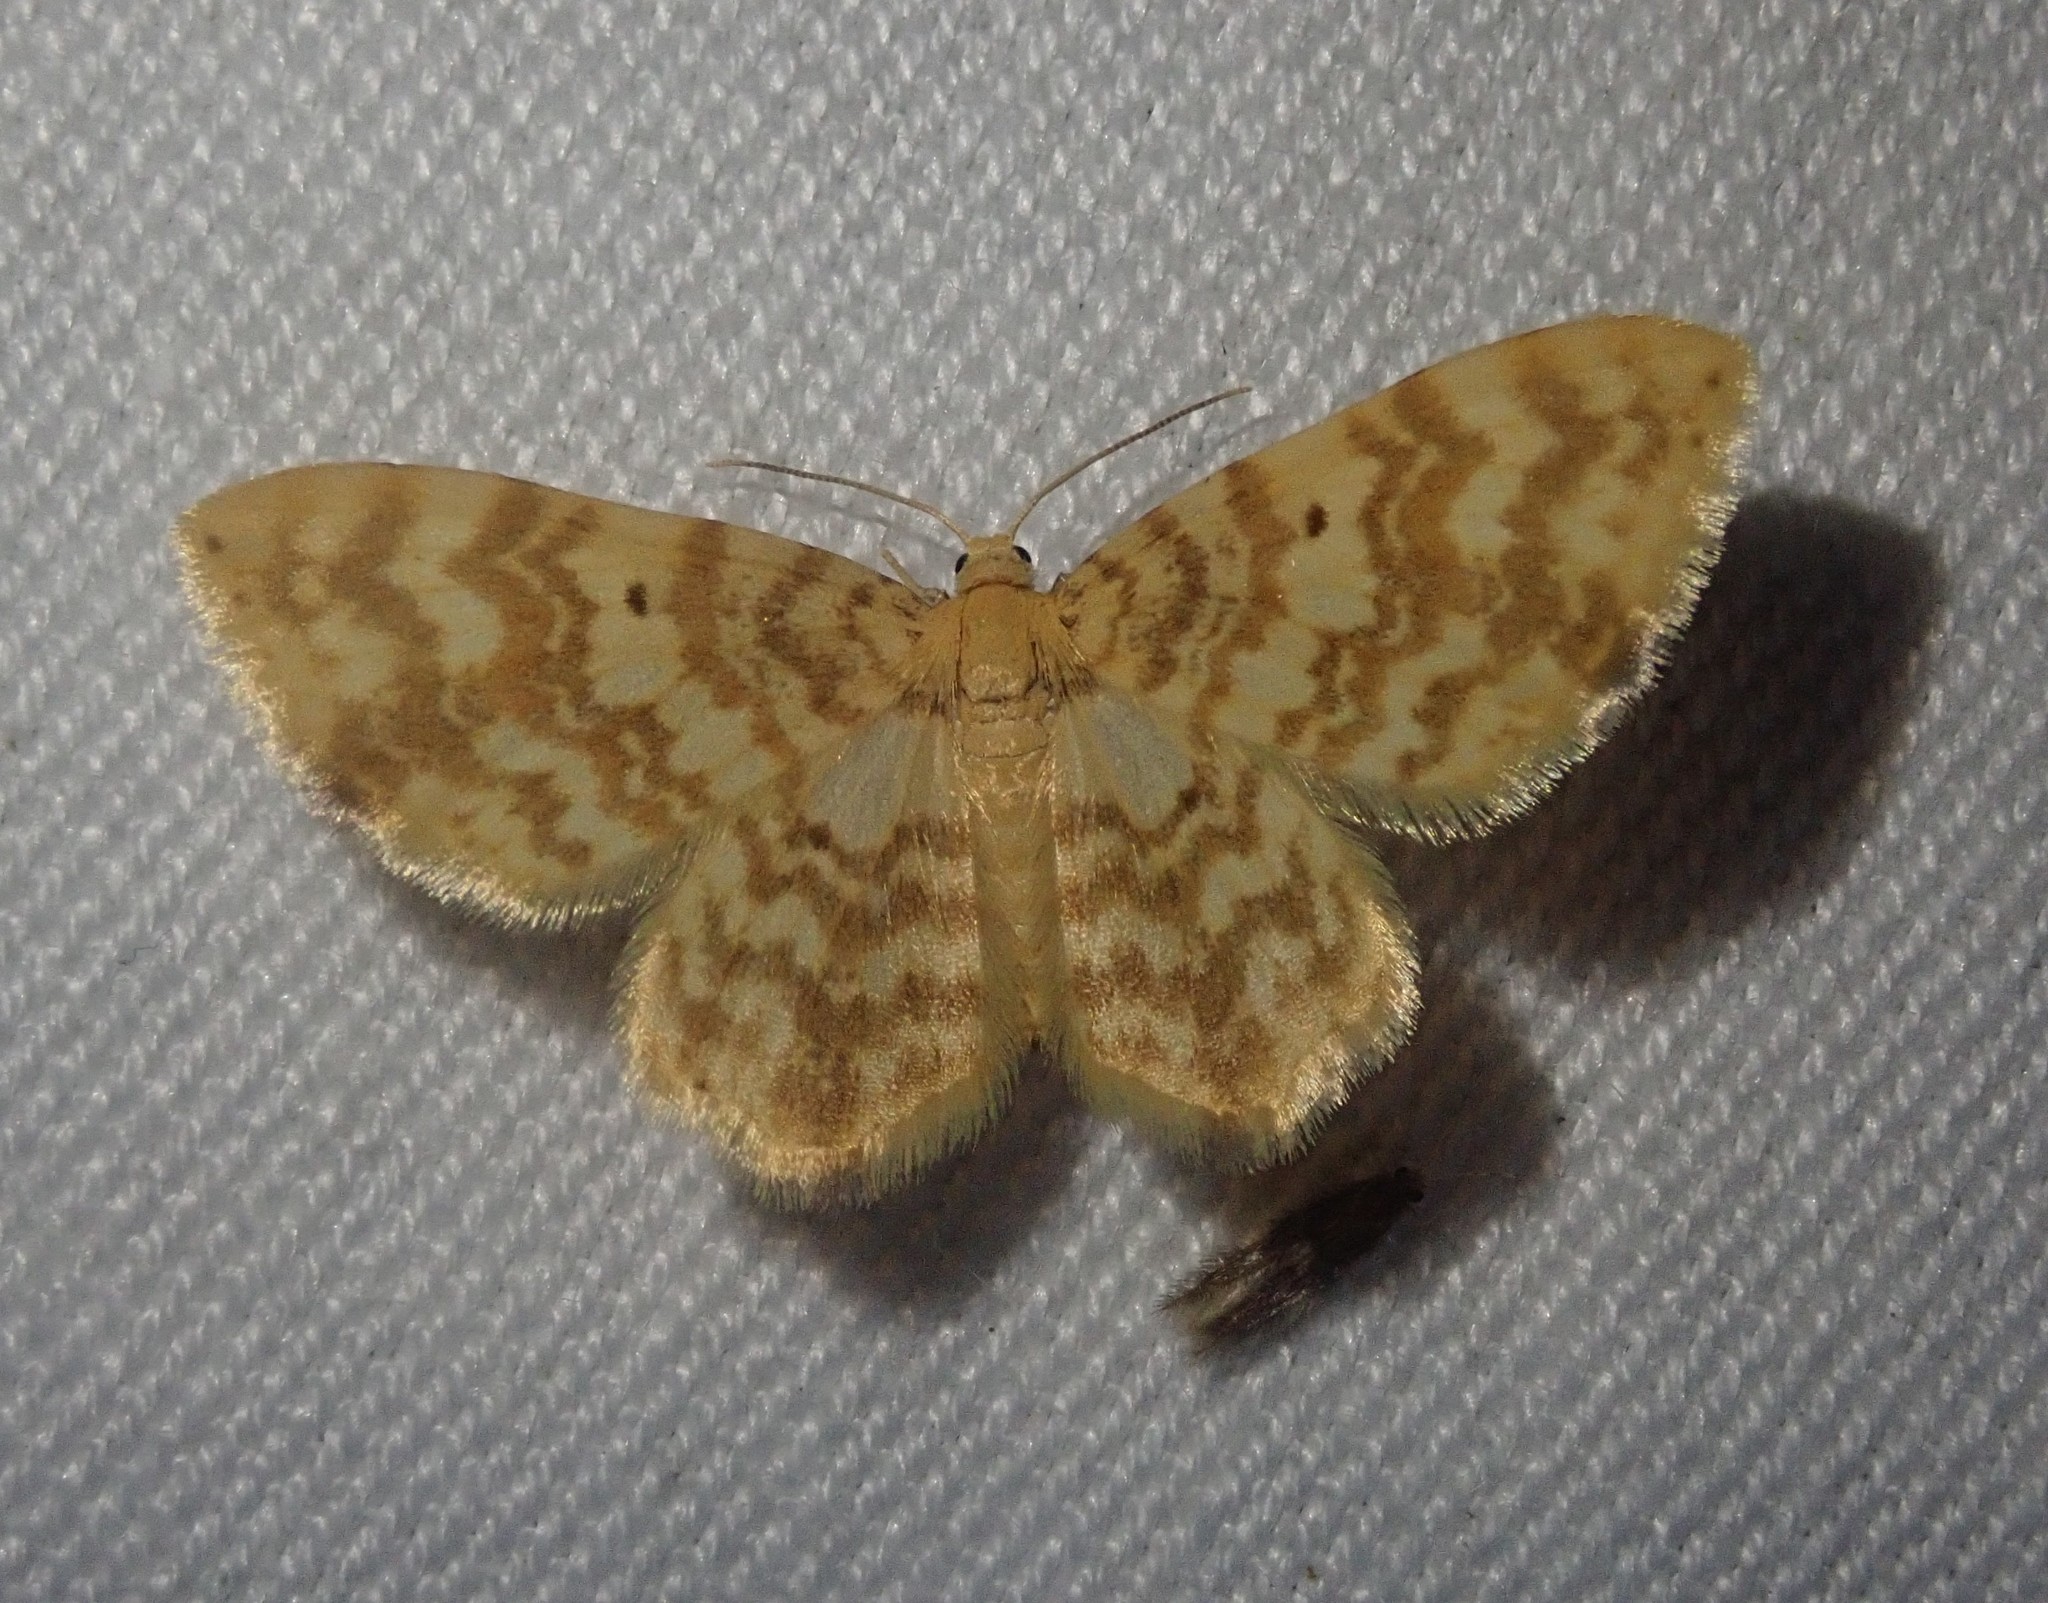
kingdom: Animalia
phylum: Arthropoda
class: Insecta
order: Lepidoptera
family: Geometridae
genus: Hydrelia
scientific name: Hydrelia flammeolaria
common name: Small yellow wave
